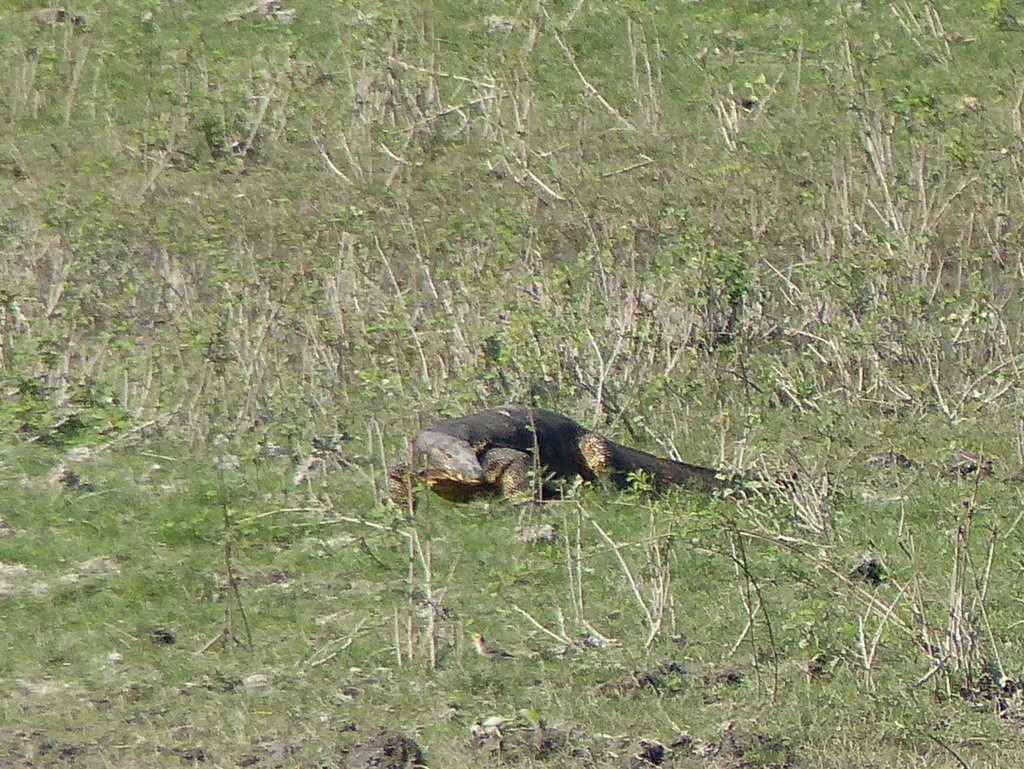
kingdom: Animalia
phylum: Chordata
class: Squamata
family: Varanidae
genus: Varanus
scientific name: Varanus bengalensis
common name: Bengal monitor
